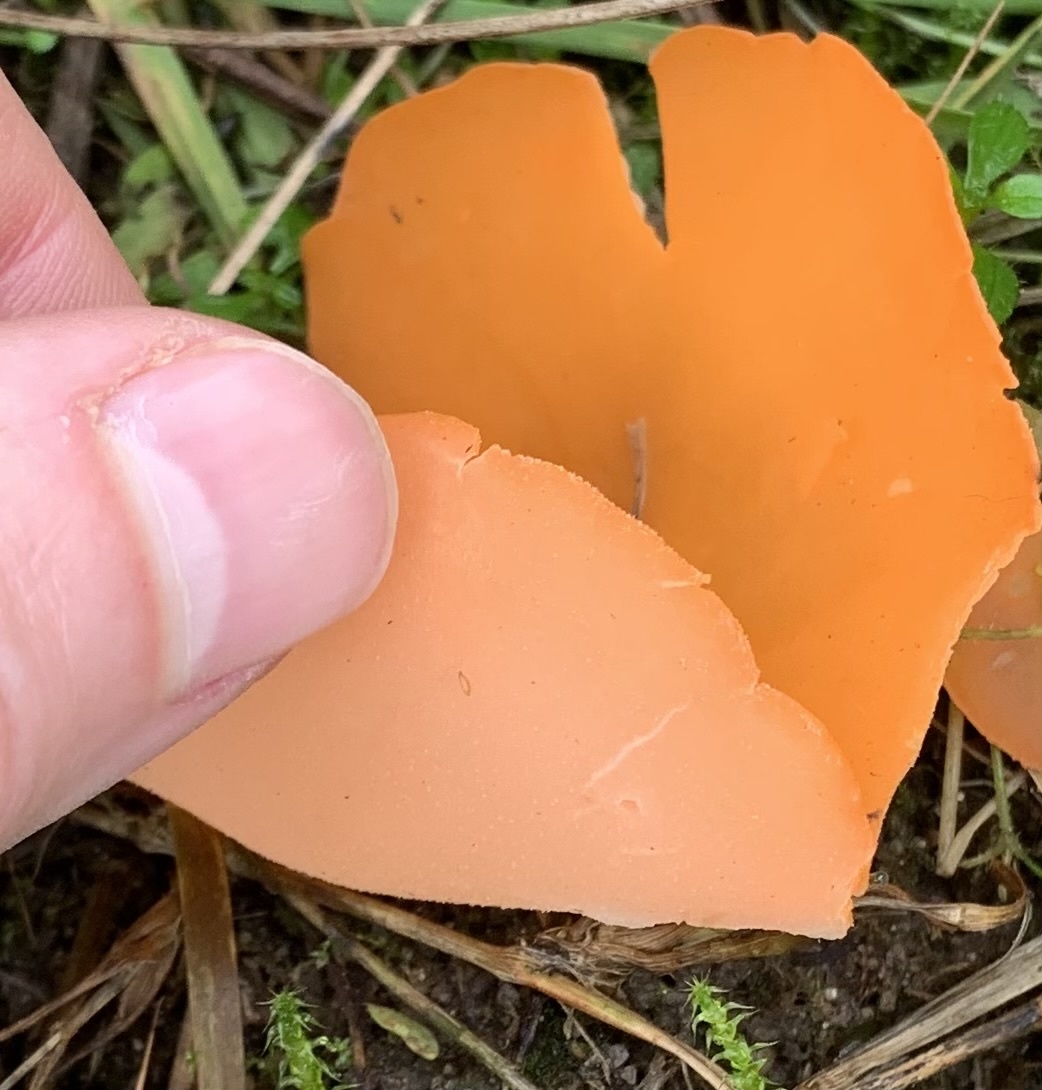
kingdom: Fungi
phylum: Ascomycota
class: Pezizomycetes
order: Pezizales
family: Pyronemataceae
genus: Aleuria
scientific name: Aleuria aurantia
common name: Orange peel fungus
